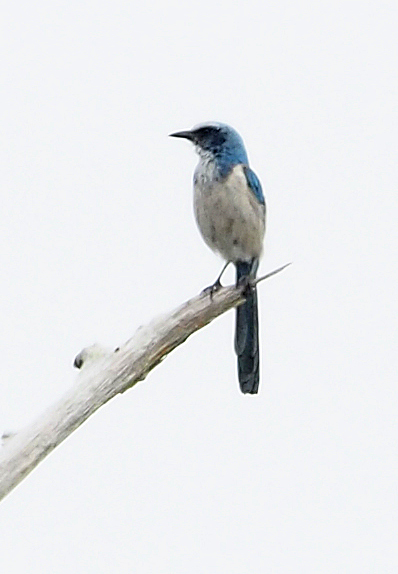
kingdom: Animalia
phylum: Chordata
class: Aves
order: Passeriformes
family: Corvidae
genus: Aphelocoma
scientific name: Aphelocoma coerulescens
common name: Florida scrub jay
